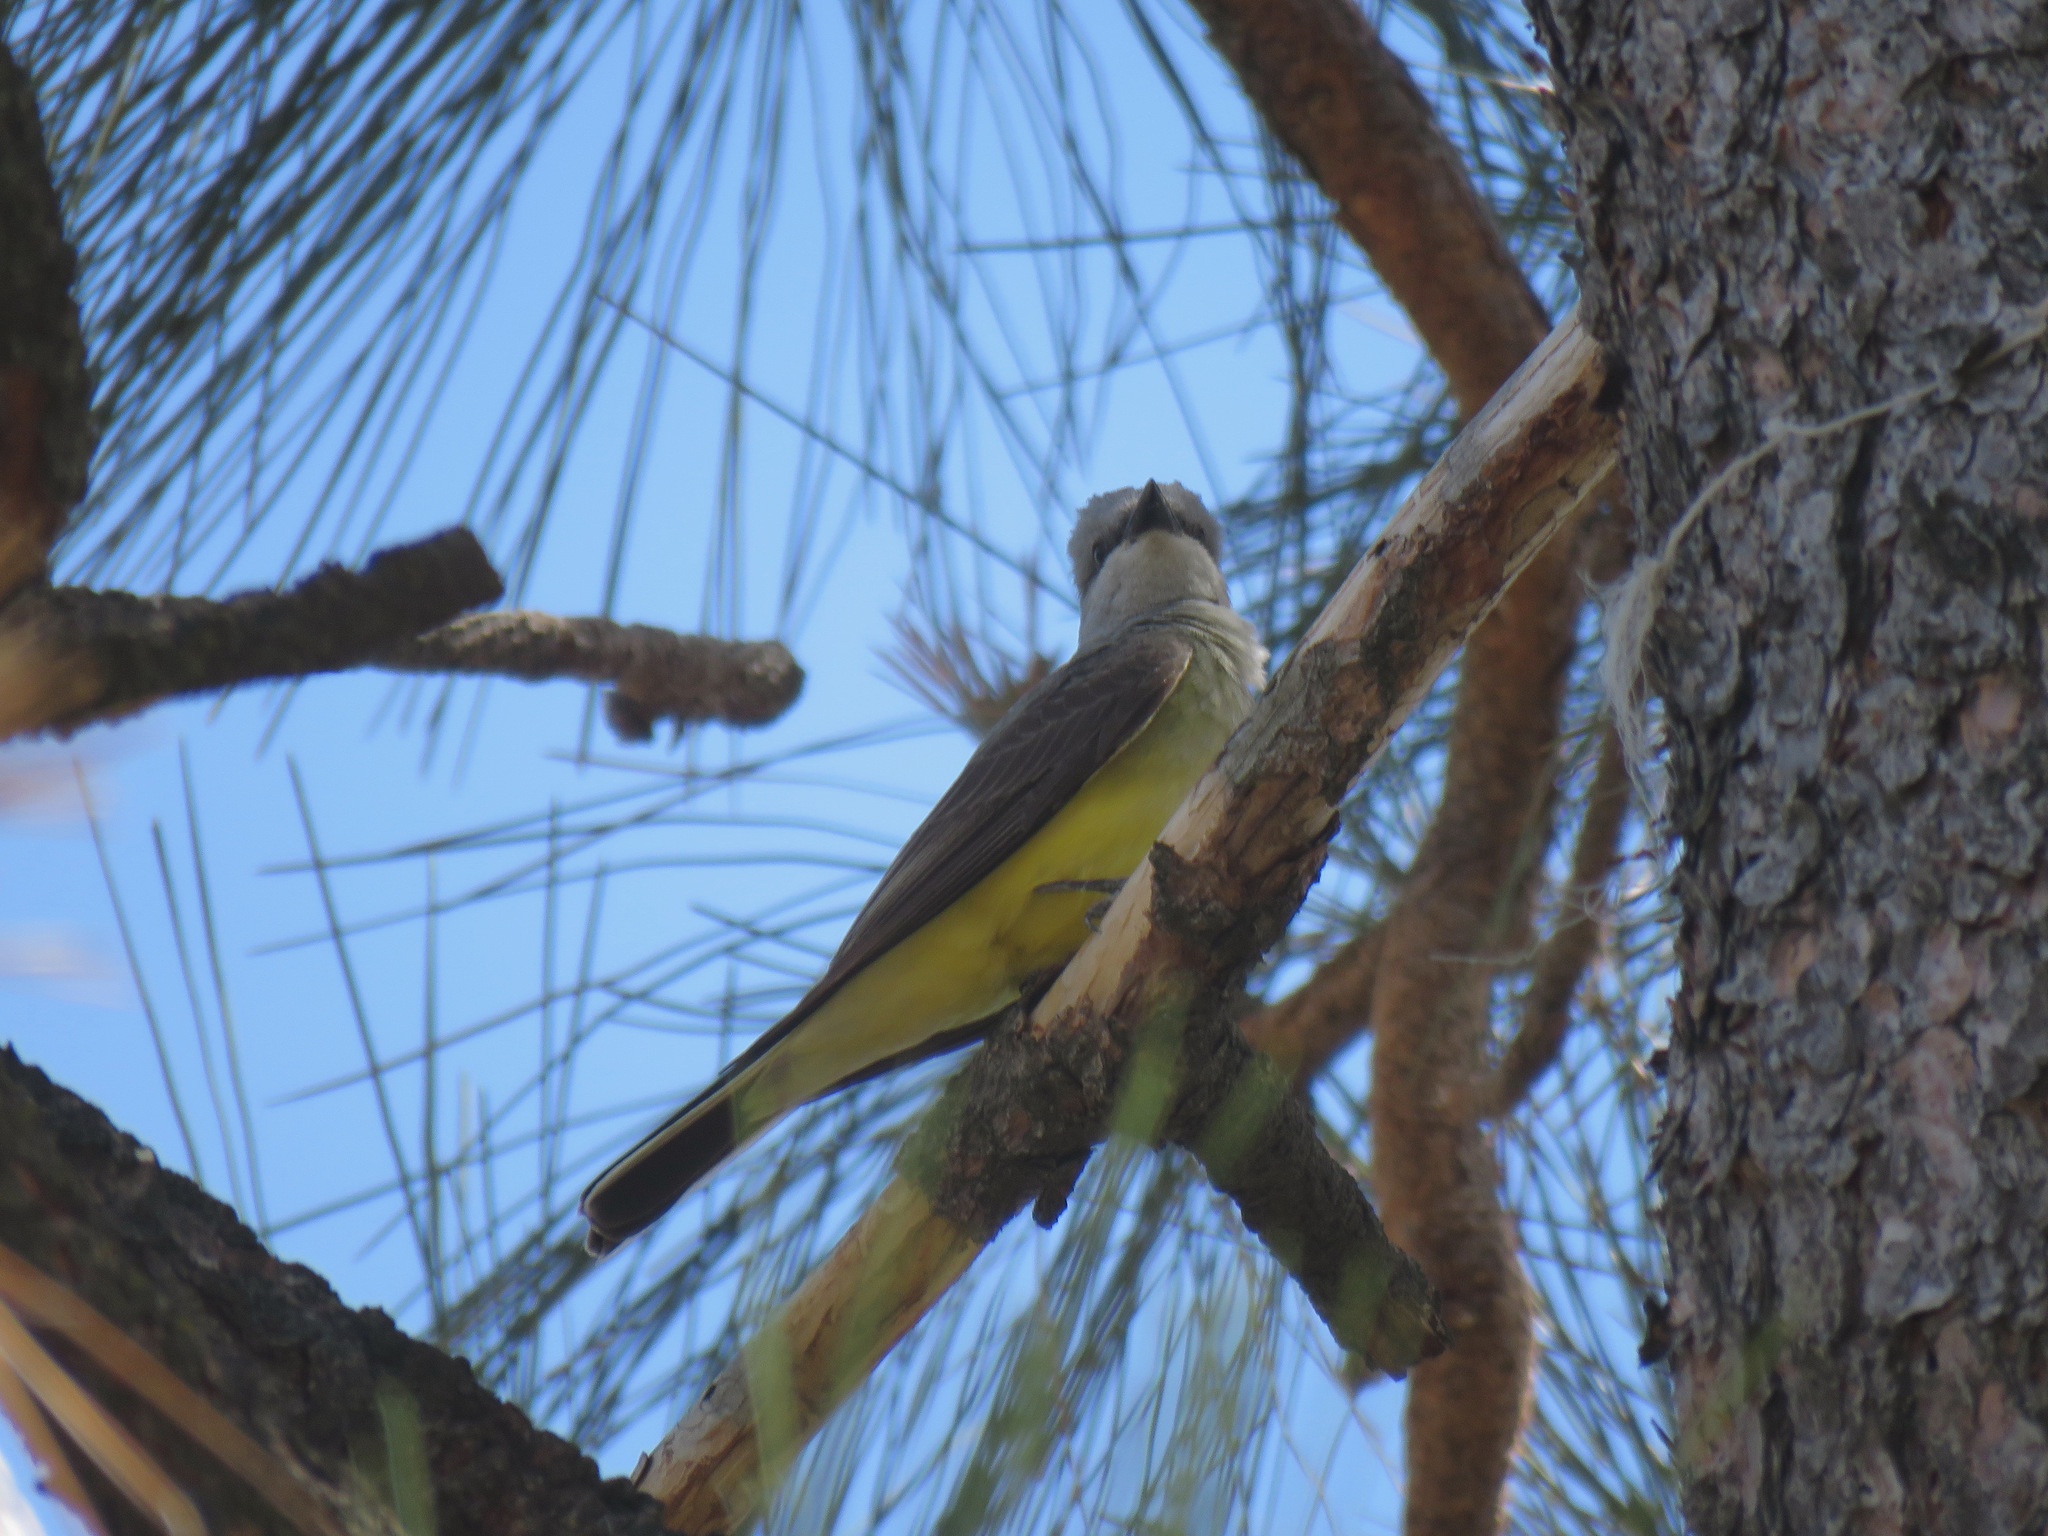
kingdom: Animalia
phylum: Chordata
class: Aves
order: Passeriformes
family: Tyrannidae
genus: Tyrannus
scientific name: Tyrannus verticalis
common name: Western kingbird
